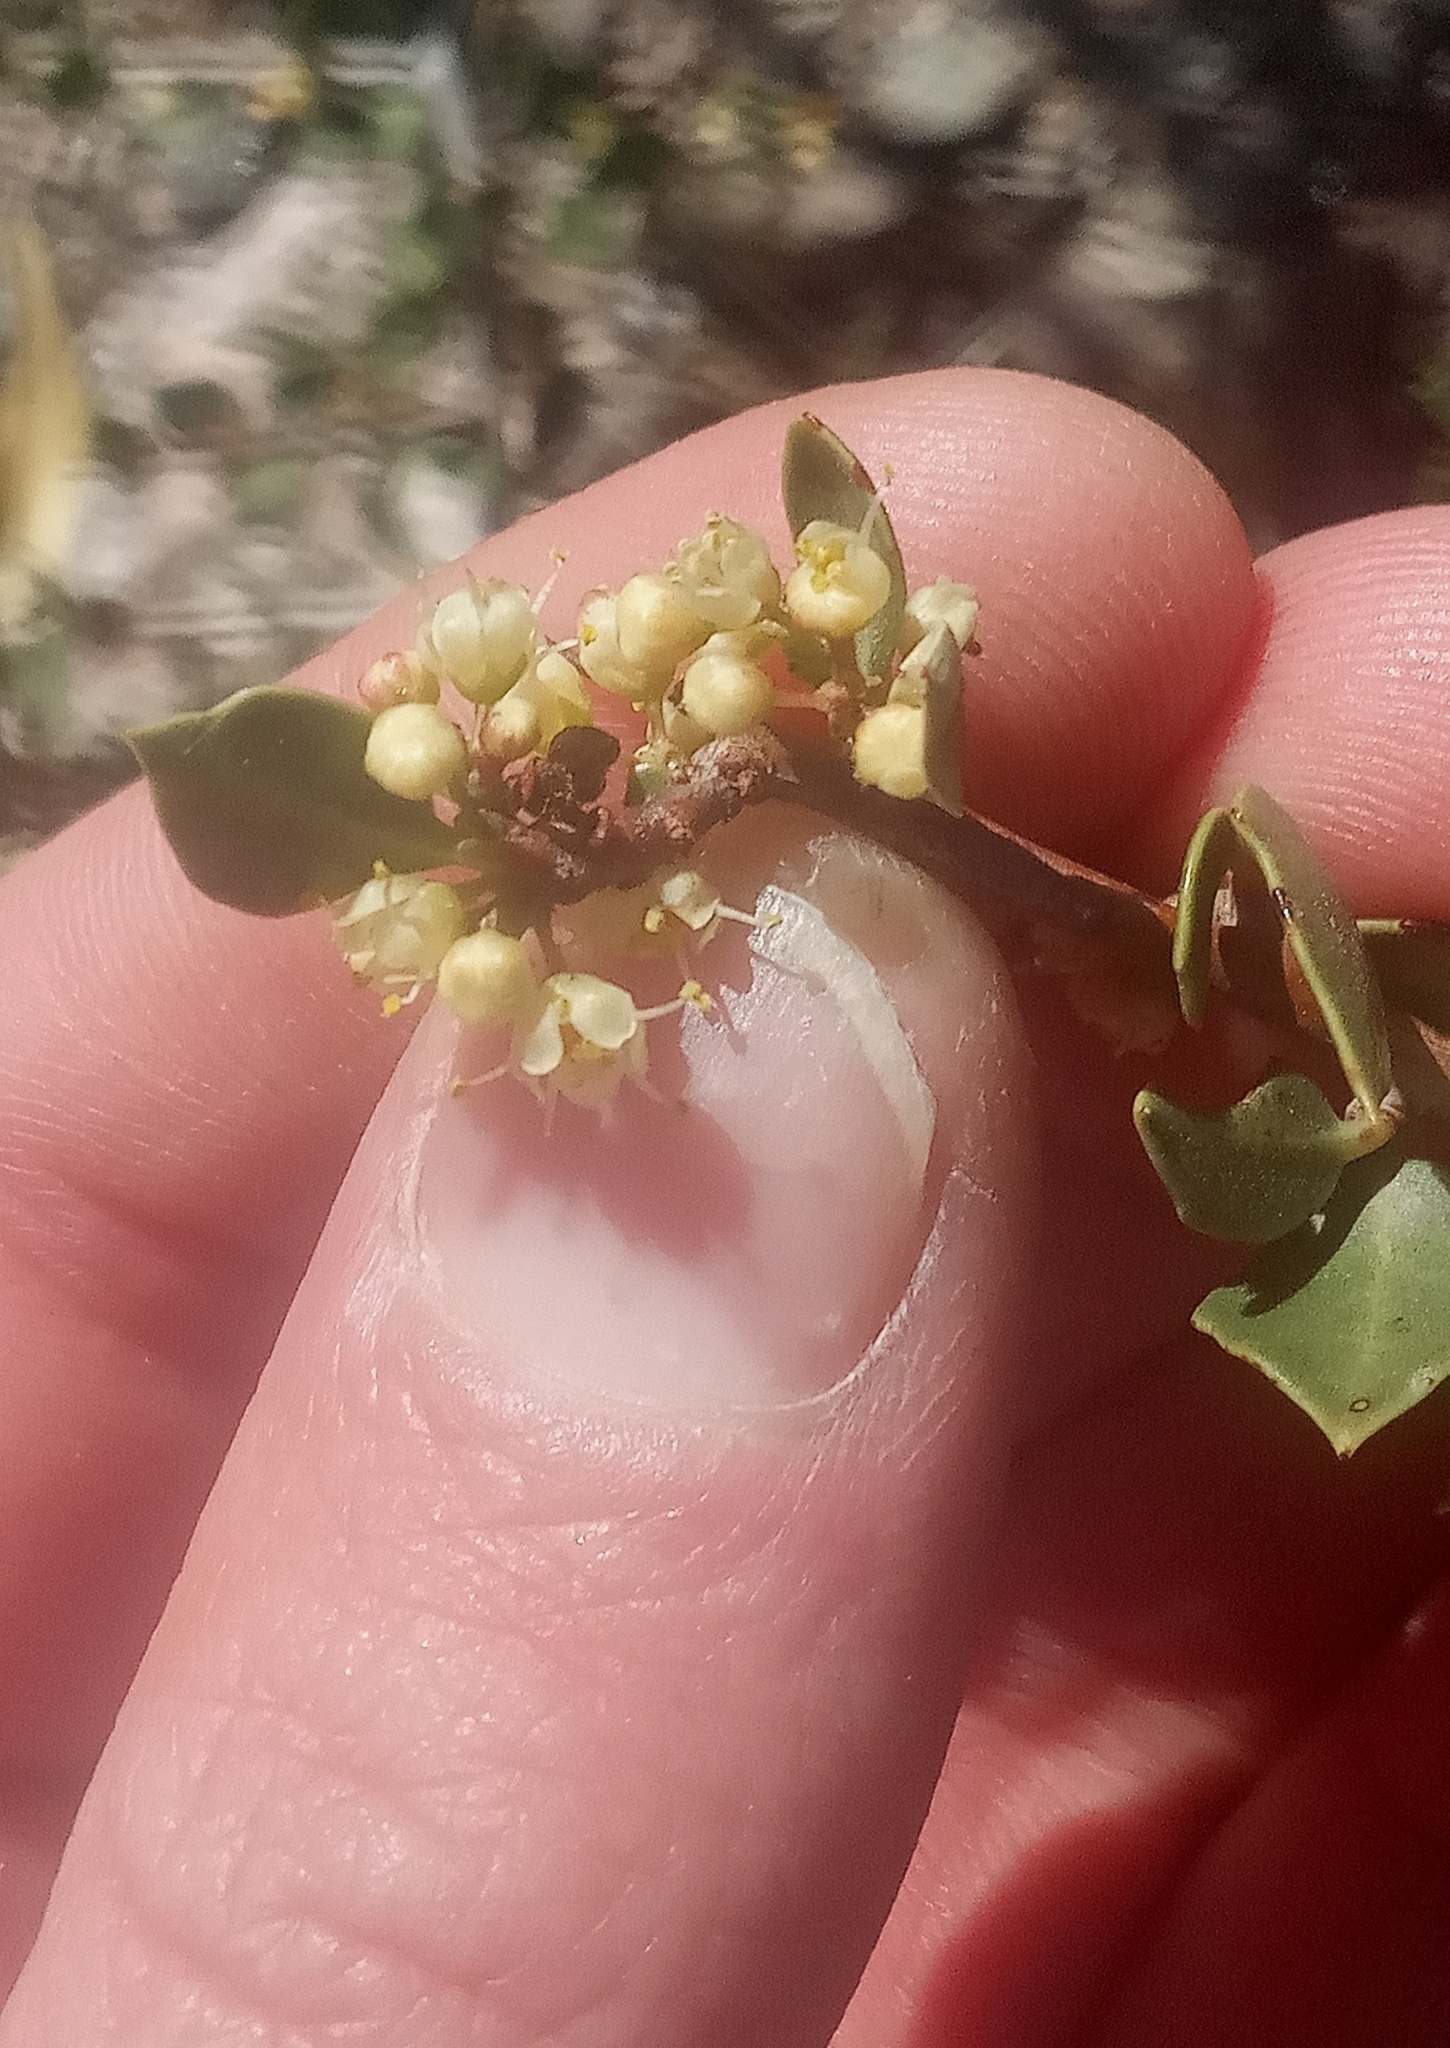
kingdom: Plantae
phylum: Tracheophyta
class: Magnoliopsida
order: Sapindales
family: Anacardiaceae
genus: Schinus
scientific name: Schinus praecox
